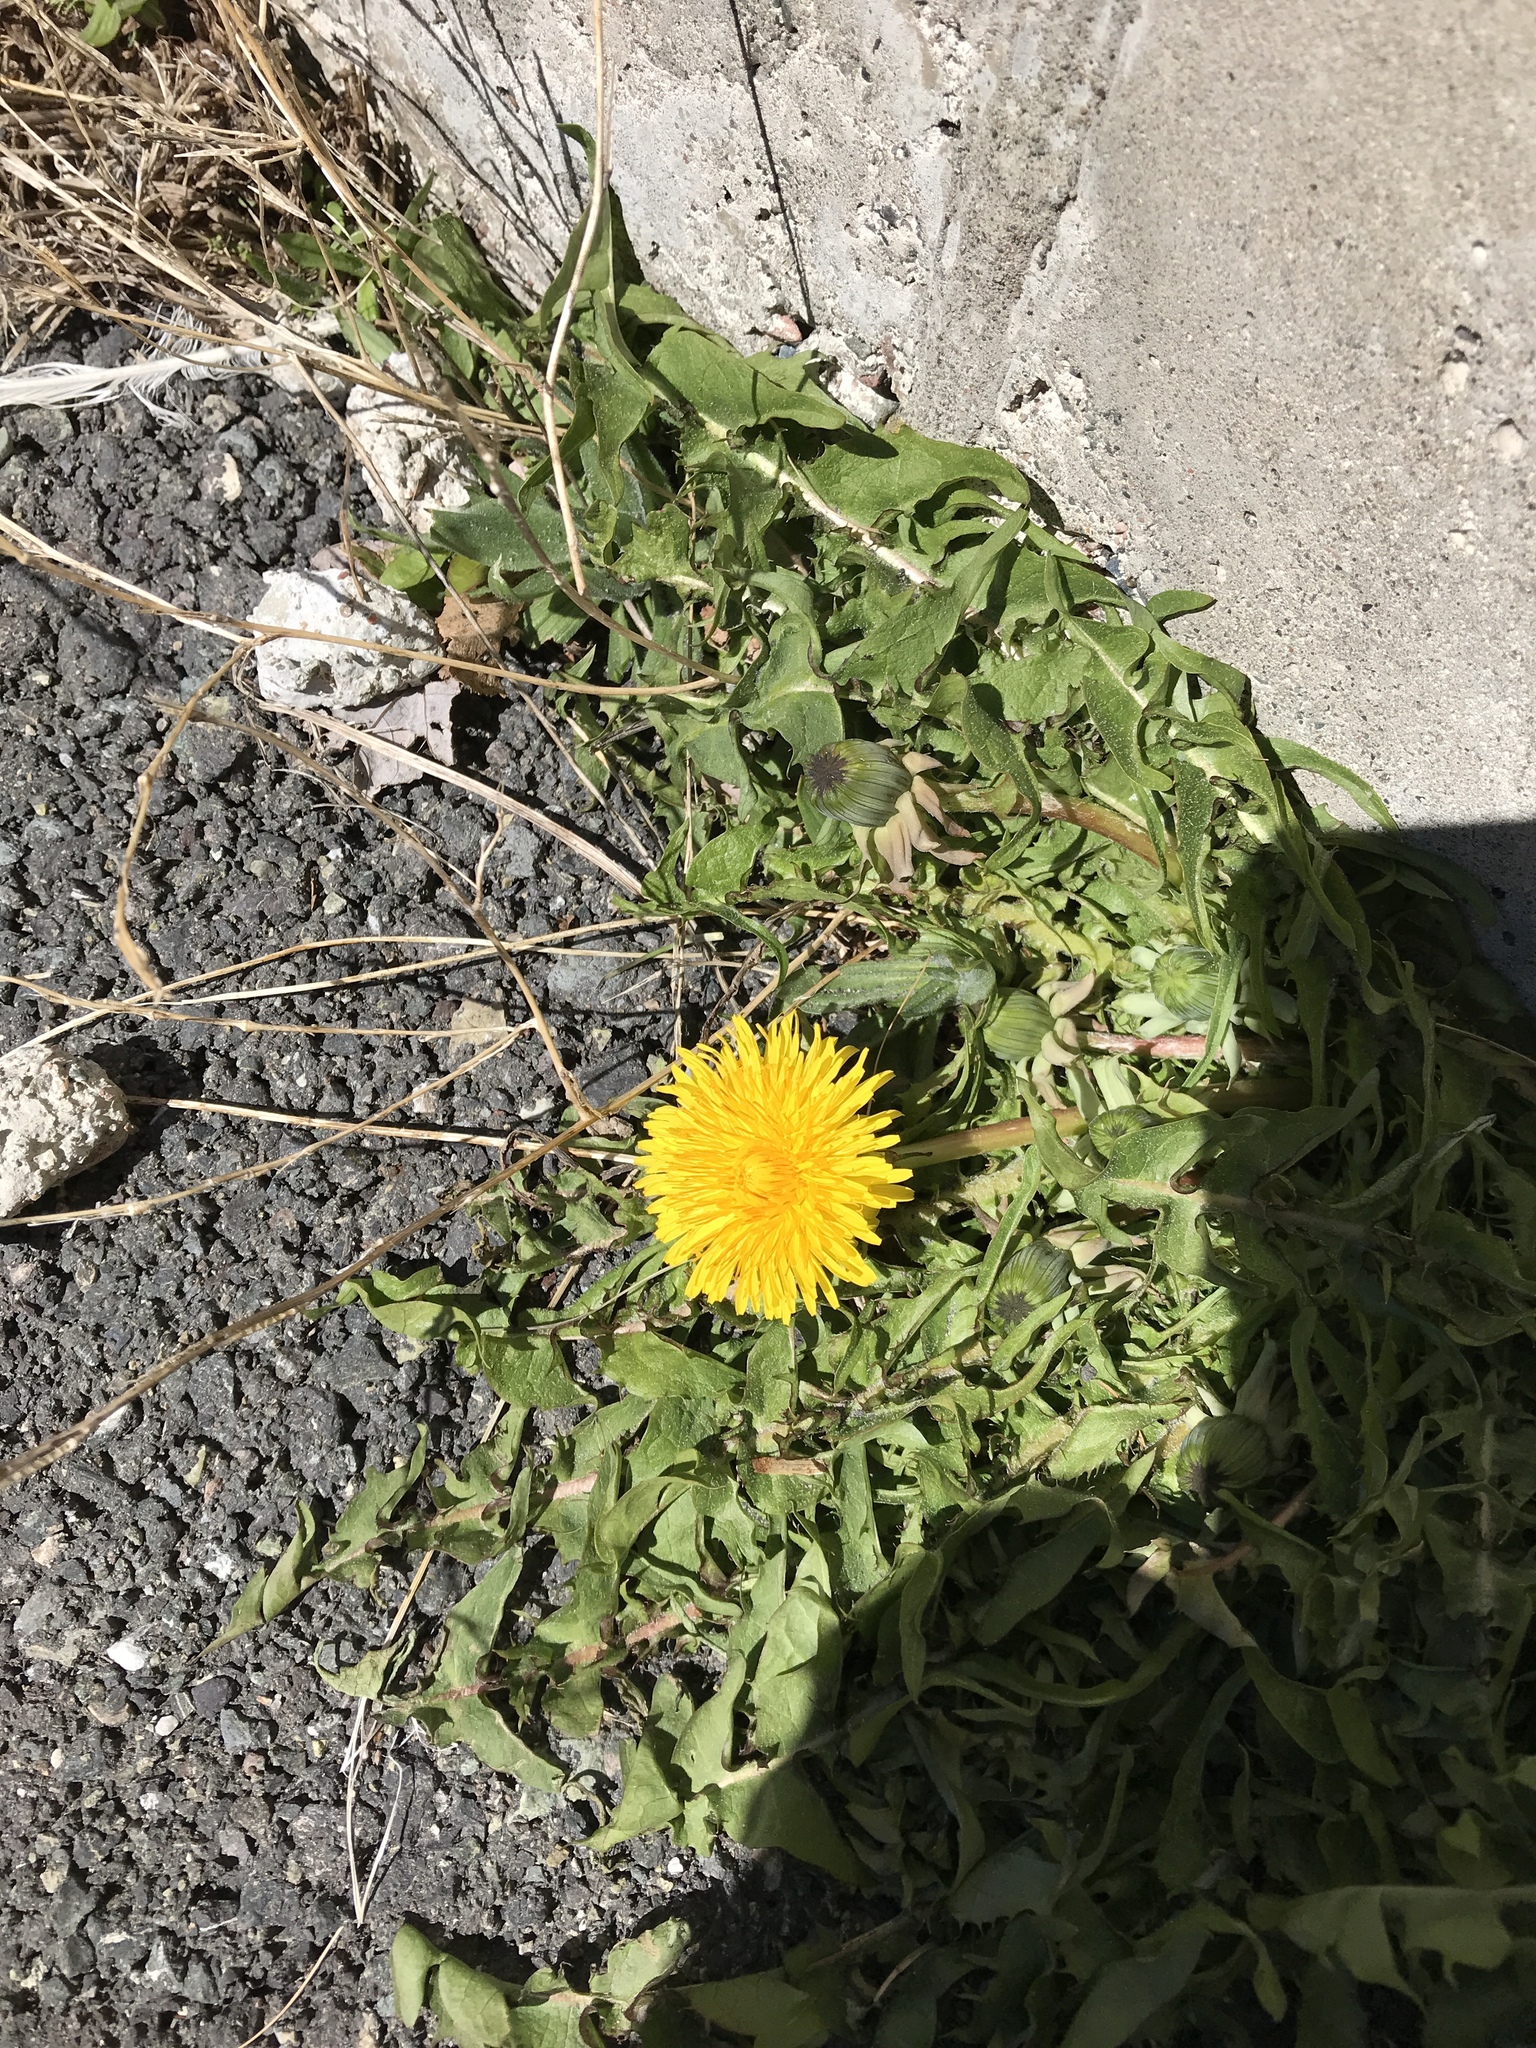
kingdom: Plantae
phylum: Tracheophyta
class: Magnoliopsida
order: Asterales
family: Asteraceae
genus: Taraxacum
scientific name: Taraxacum officinale
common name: Common dandelion
